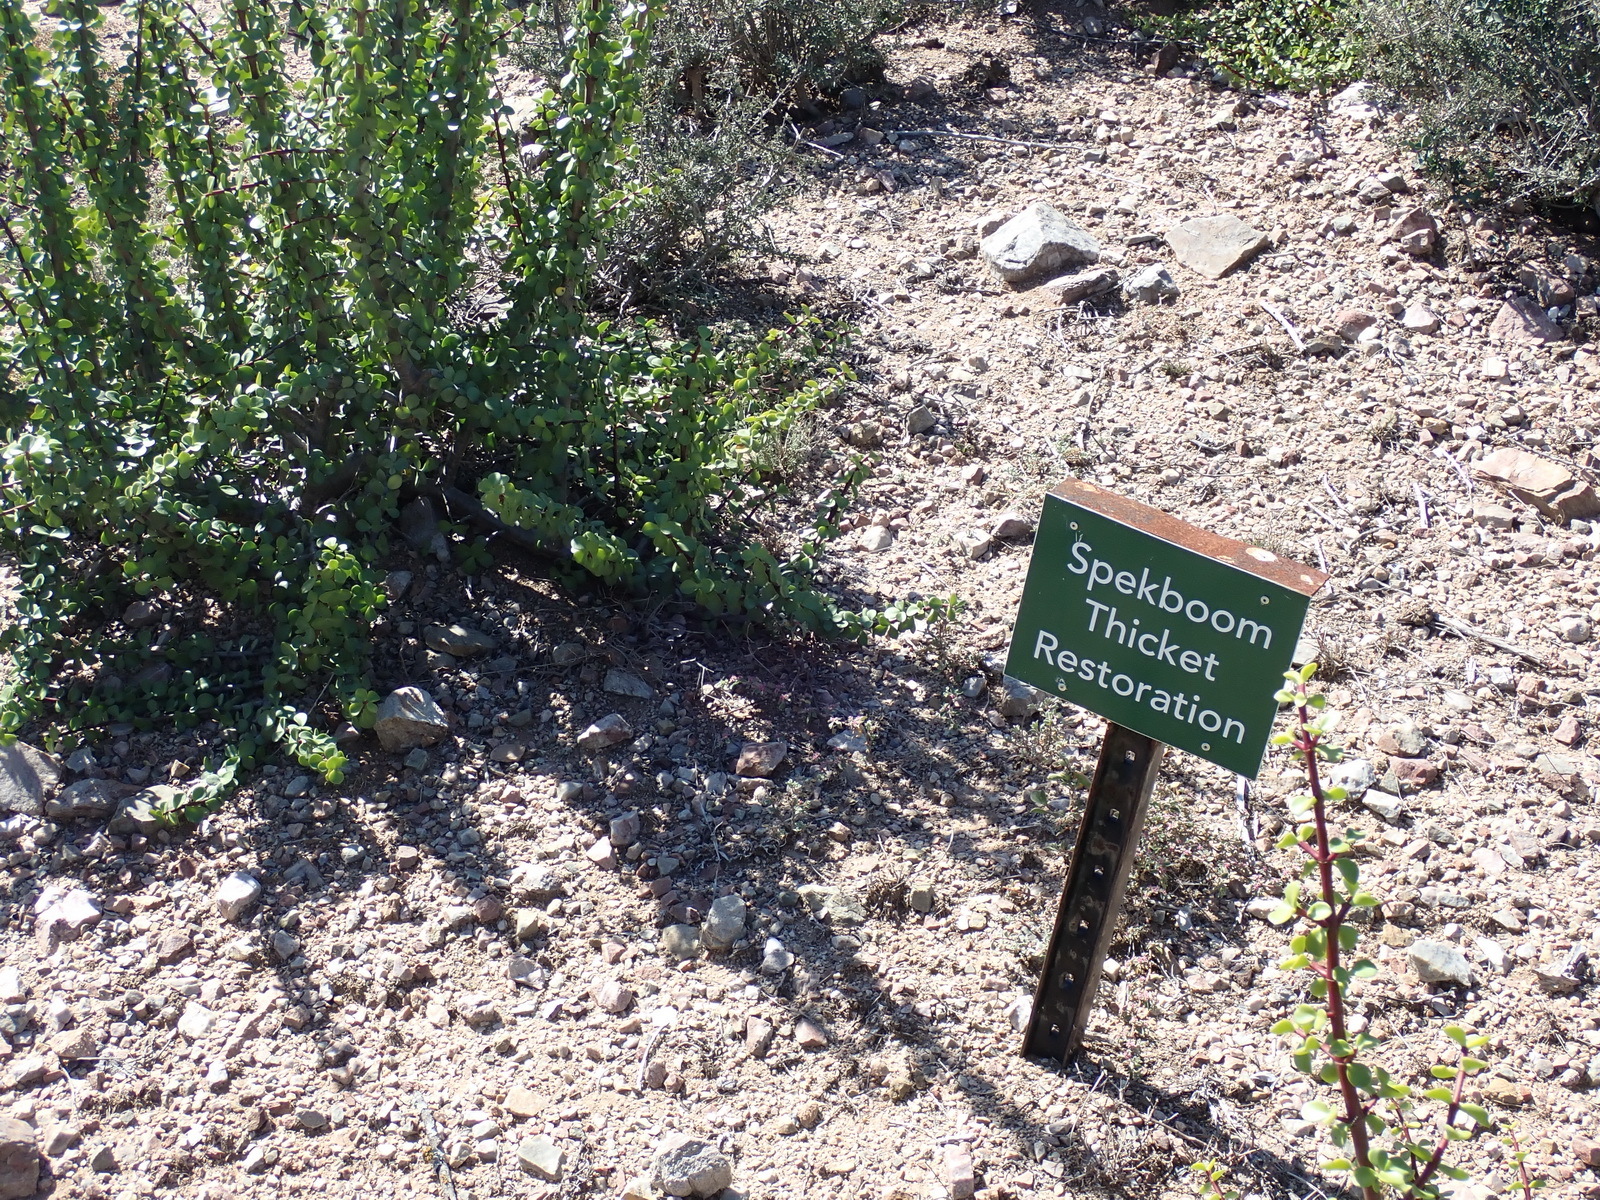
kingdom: Plantae
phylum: Tracheophyta
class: Magnoliopsida
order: Caryophyllales
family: Didiereaceae
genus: Portulacaria
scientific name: Portulacaria afra
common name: Elephant-bush
